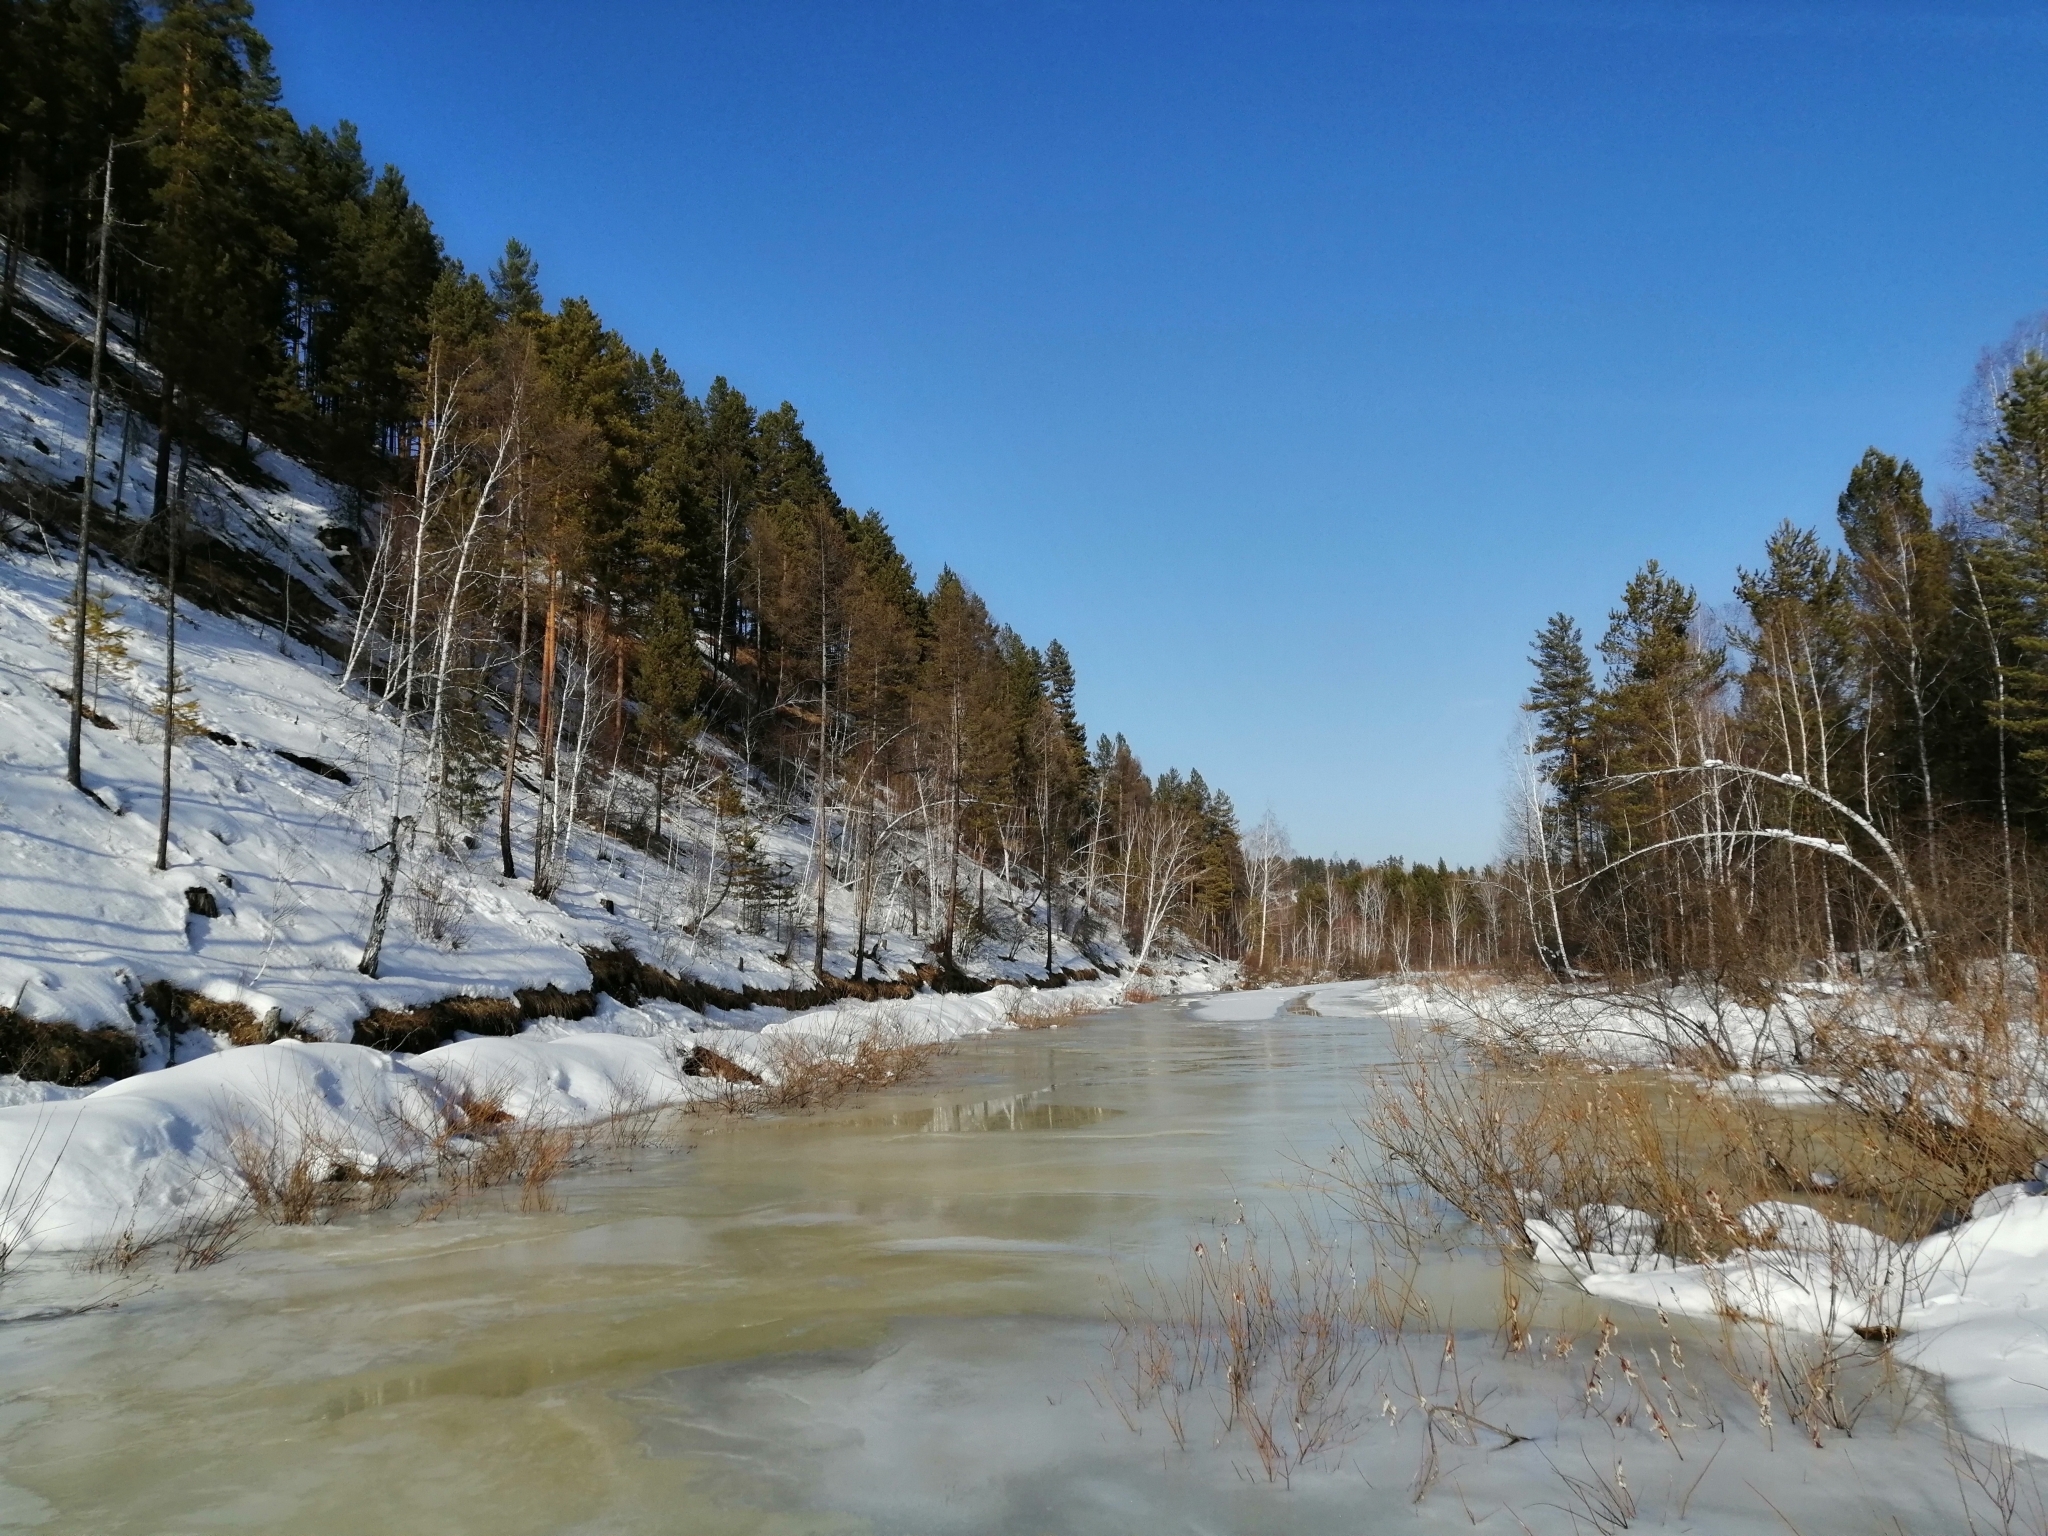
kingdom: Plantae
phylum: Tracheophyta
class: Pinopsida
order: Pinales
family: Pinaceae
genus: Pinus
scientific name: Pinus sylvestris
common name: Scots pine
